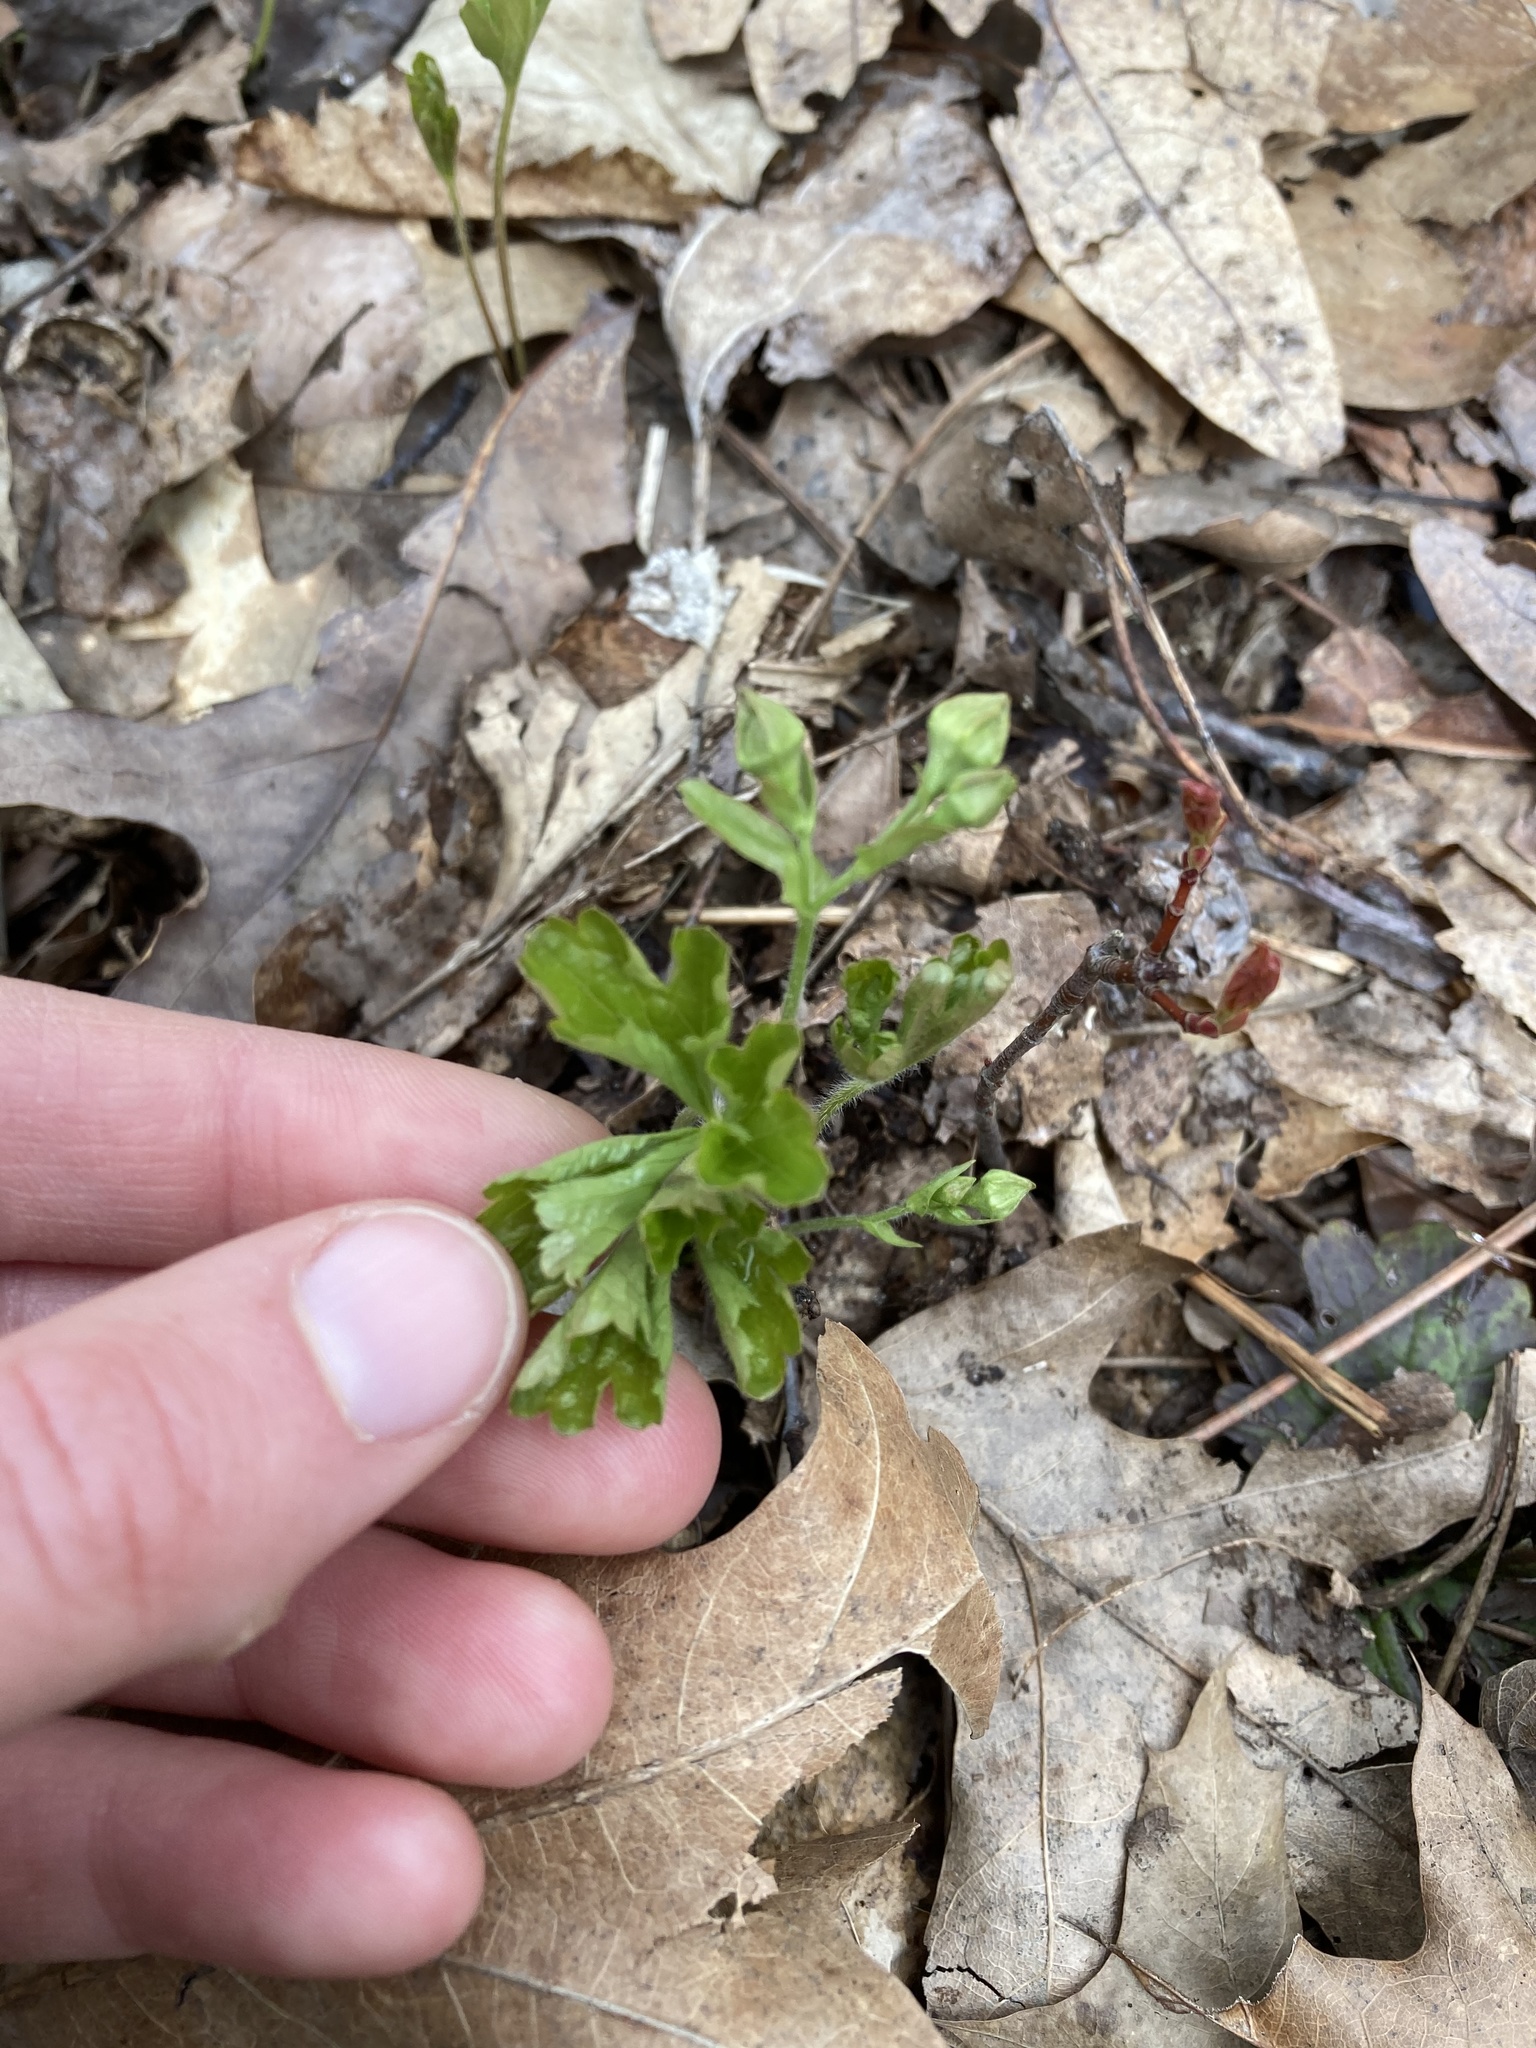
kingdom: Plantae
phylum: Tracheophyta
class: Magnoliopsida
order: Rosales
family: Rosaceae
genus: Geum
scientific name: Geum fragarioides
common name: Appalachian barren strawberry
